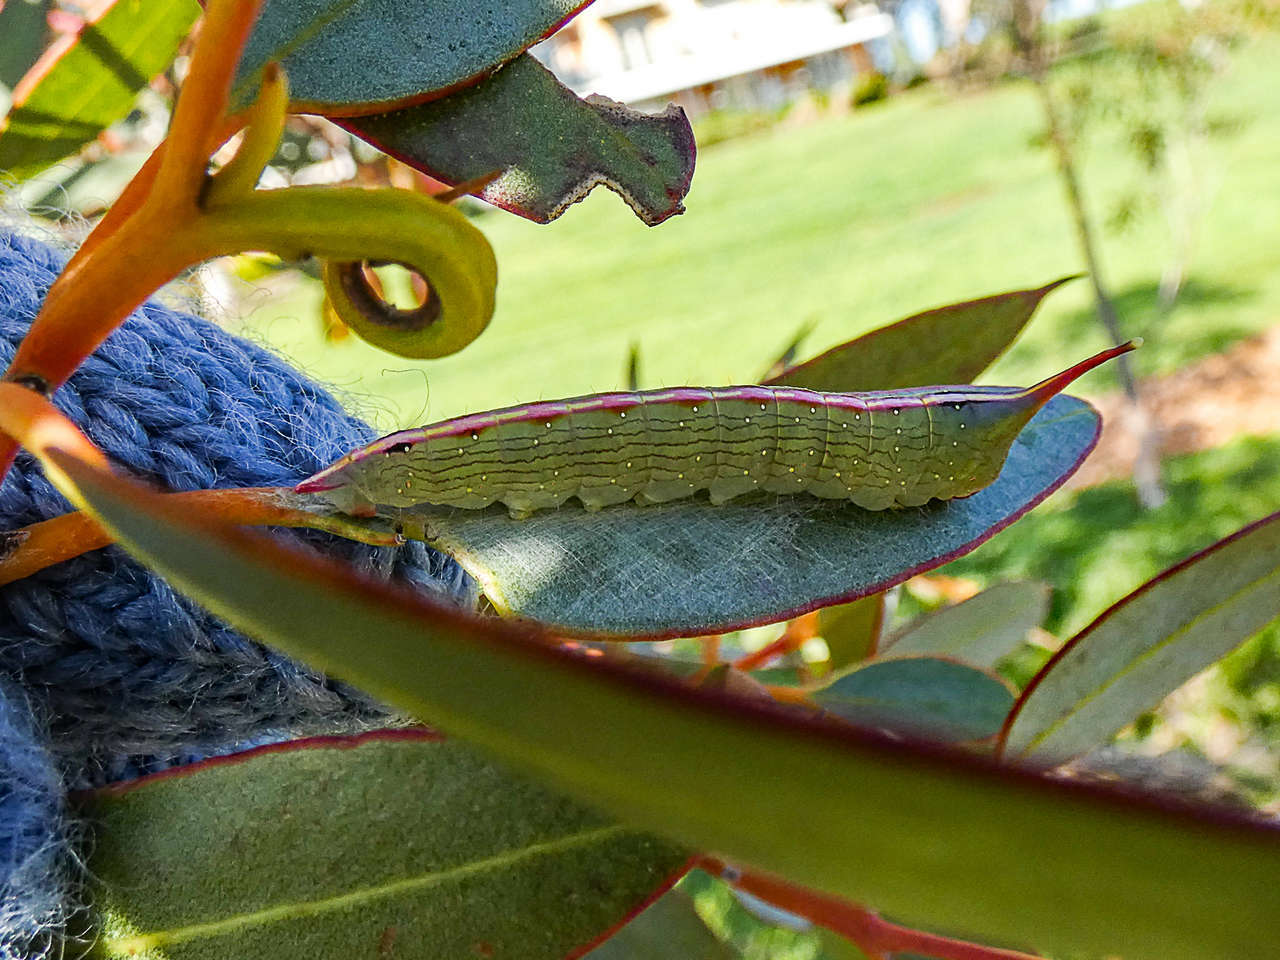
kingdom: Animalia
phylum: Arthropoda
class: Insecta
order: Lepidoptera
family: Geometridae
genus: Plesanemma
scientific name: Plesanemma fucata
